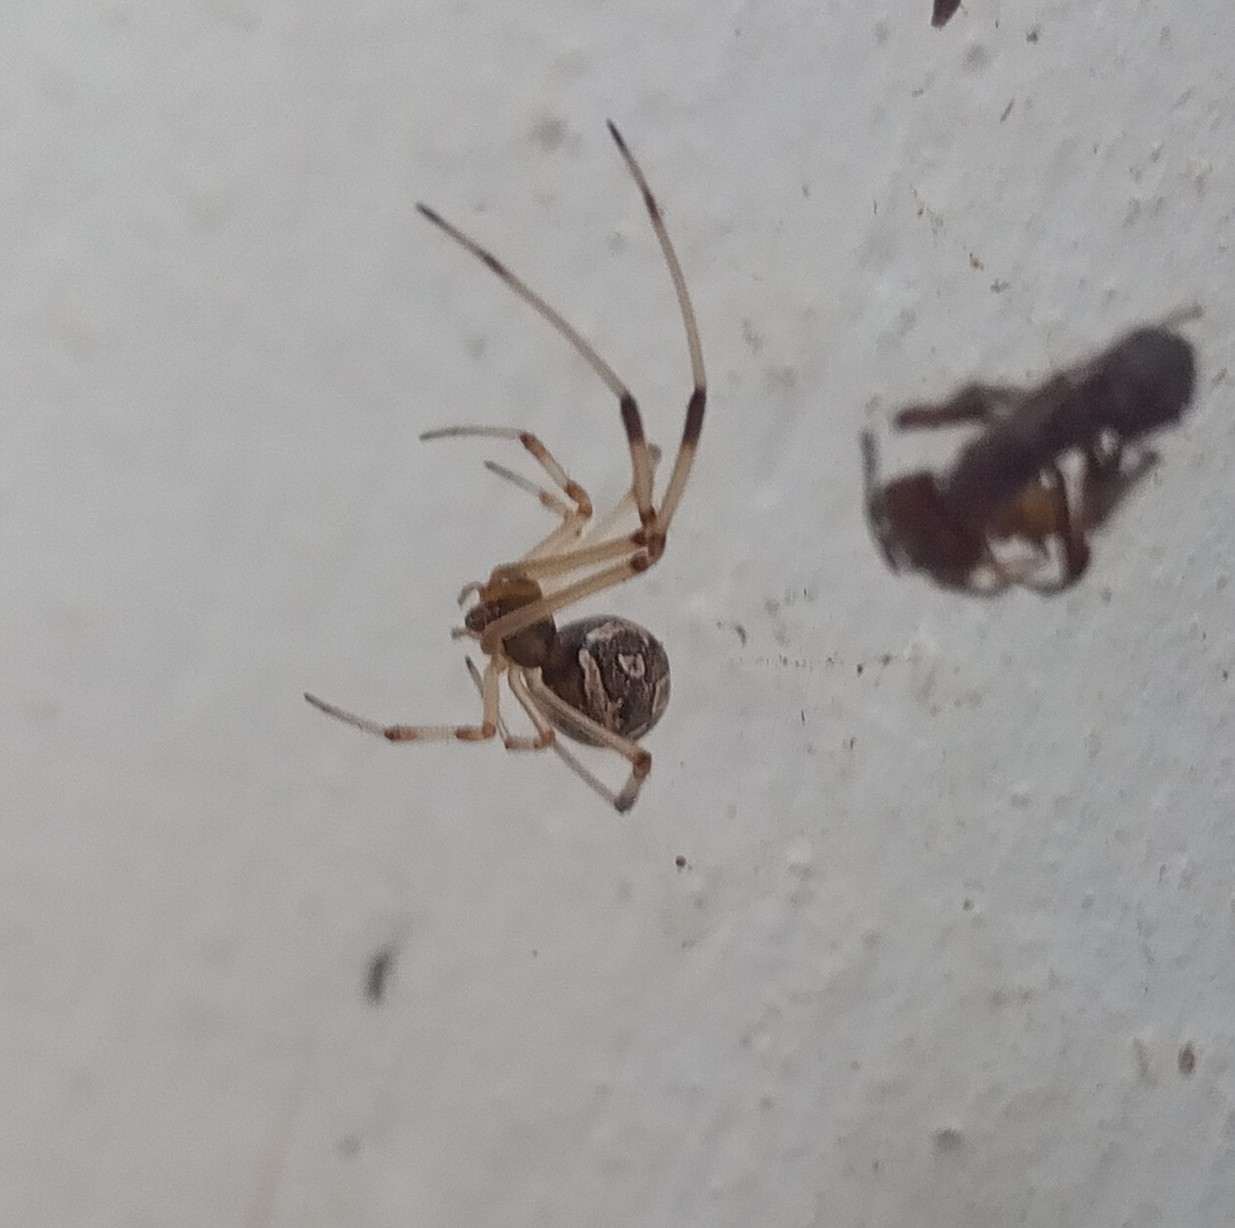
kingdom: Animalia
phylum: Arthropoda
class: Arachnida
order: Araneae
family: Theridiidae
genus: Latrodectus
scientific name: Latrodectus geometricus
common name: Brown widow spider
